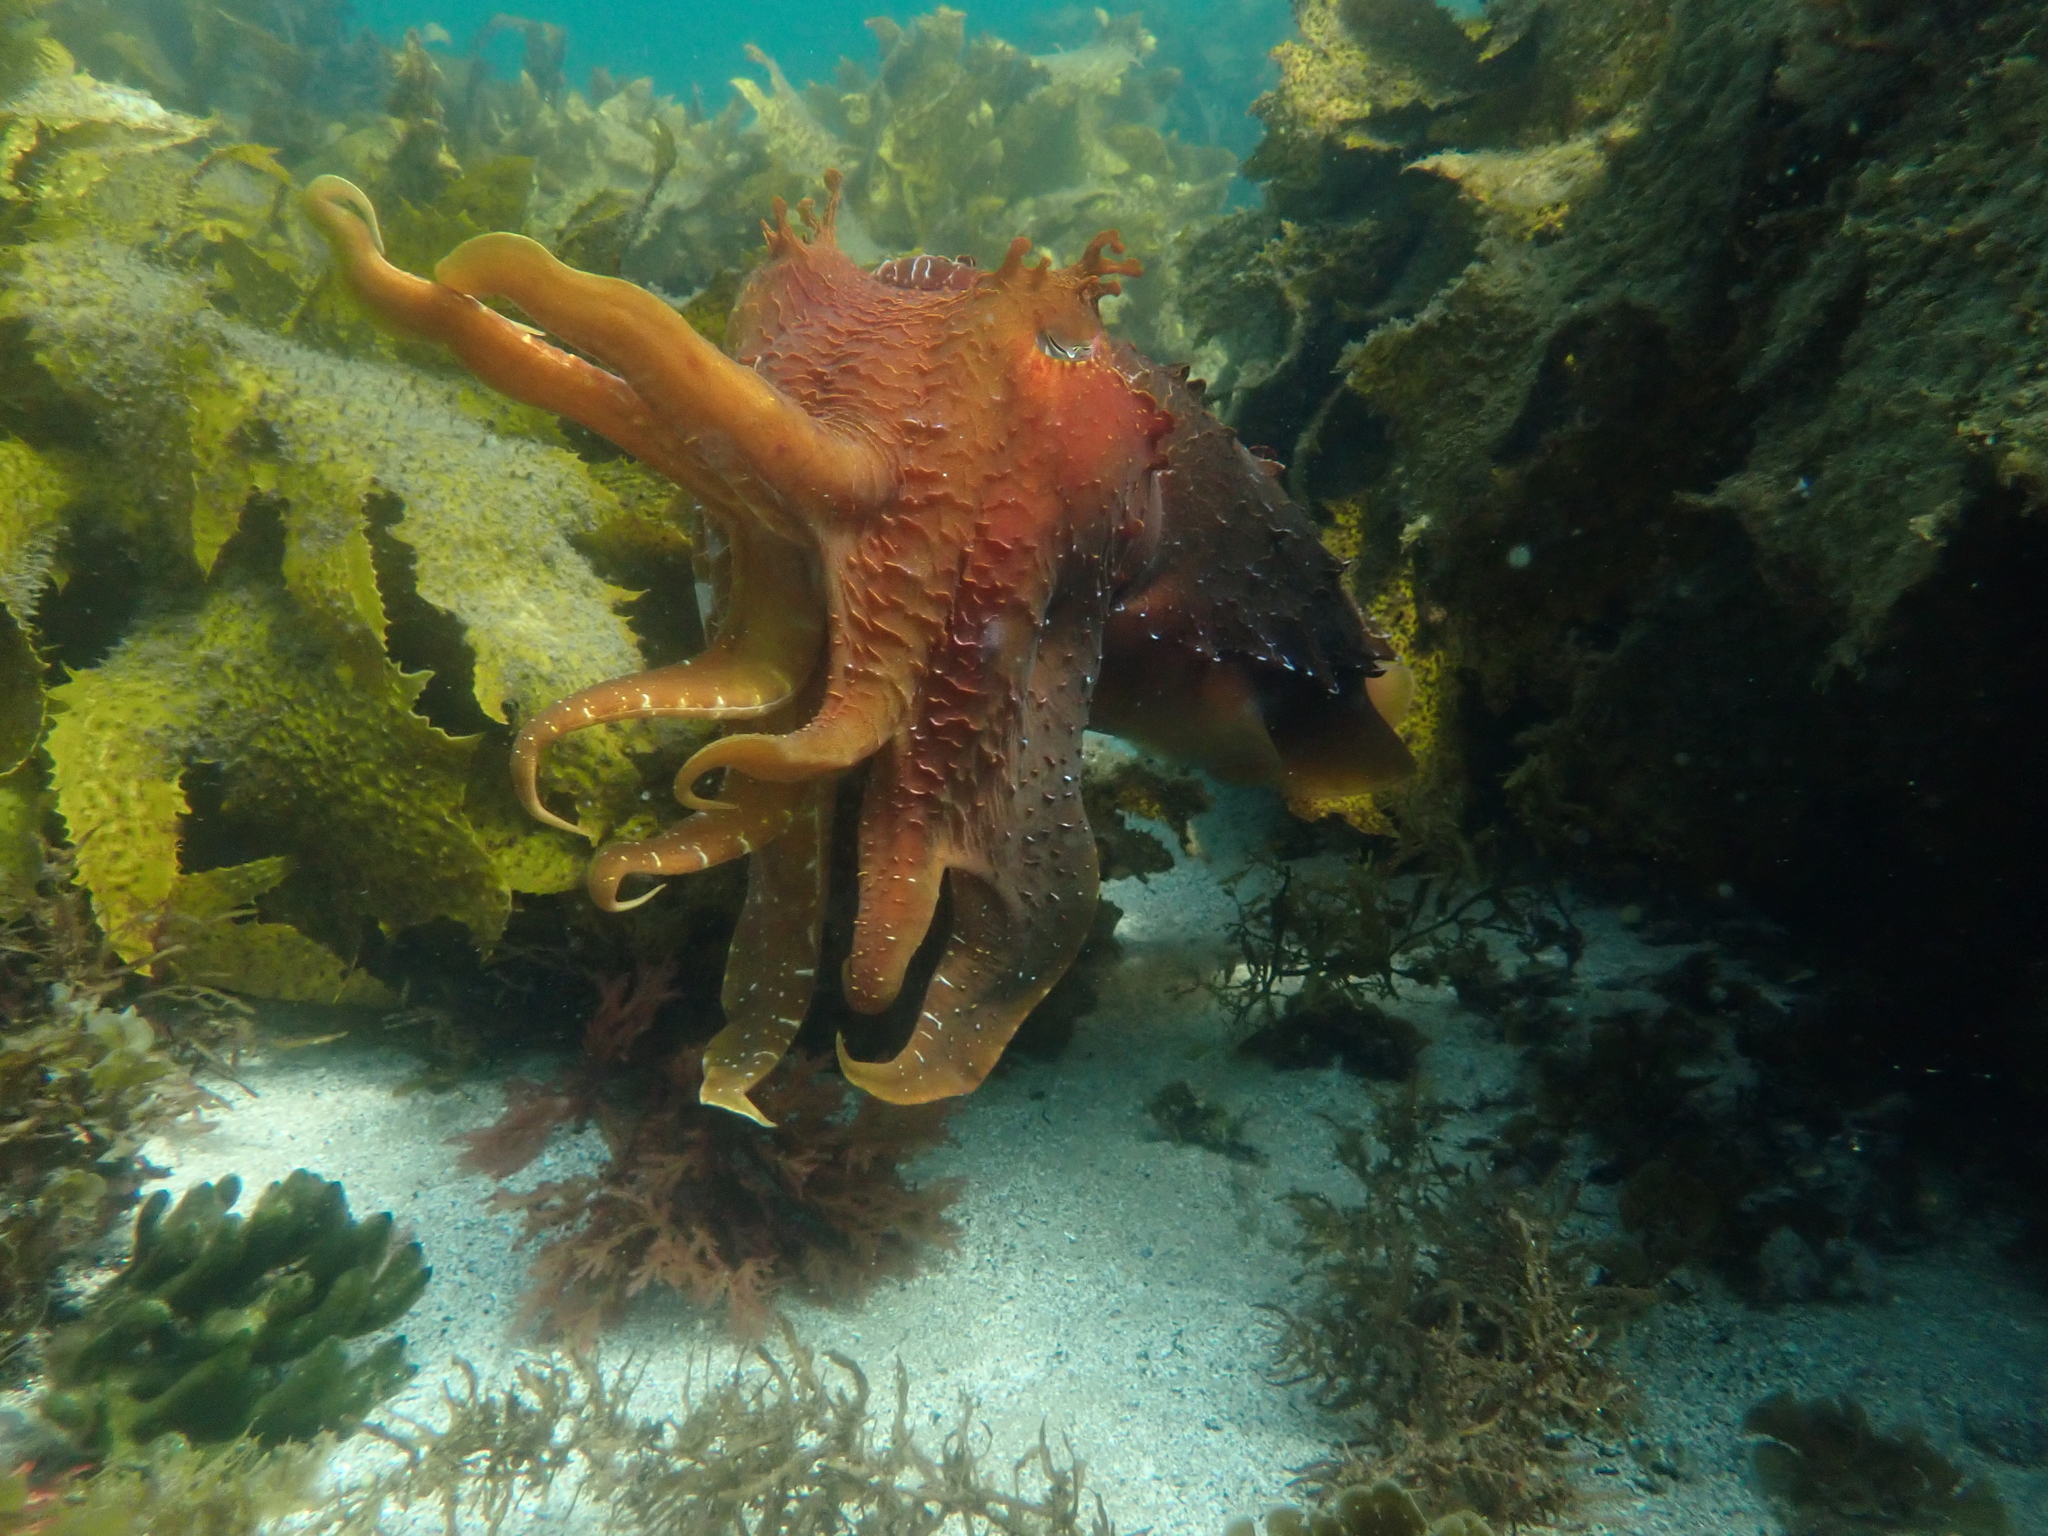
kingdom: Animalia
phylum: Mollusca
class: Cephalopoda
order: Sepiida
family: Sepiidae
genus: Ascarosepion
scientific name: Ascarosepion apama
